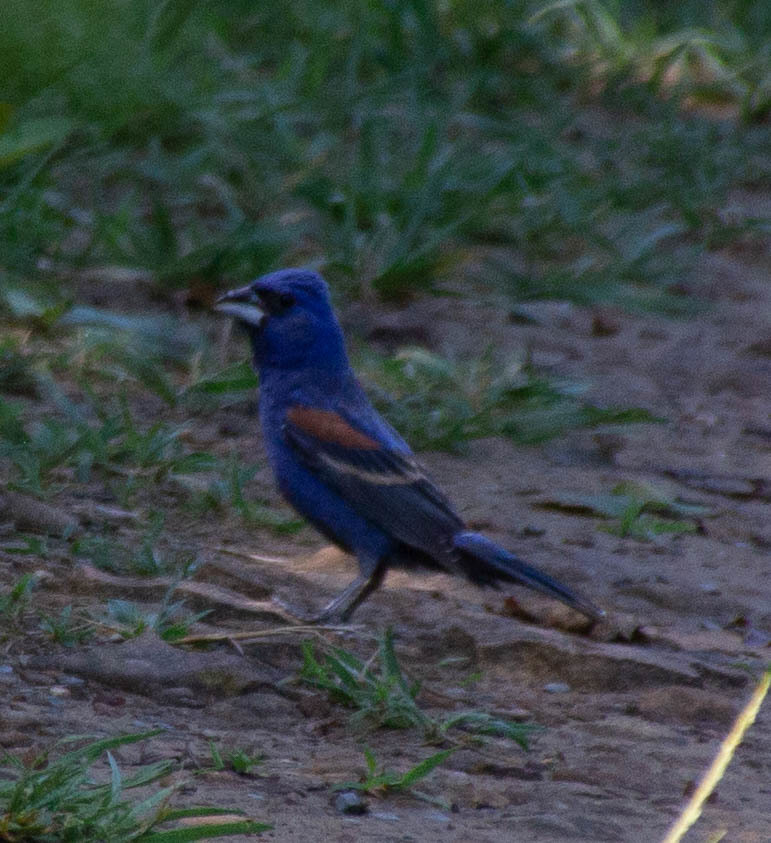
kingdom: Animalia
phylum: Chordata
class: Aves
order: Passeriformes
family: Cardinalidae
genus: Passerina
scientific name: Passerina caerulea
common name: Blue grosbeak
